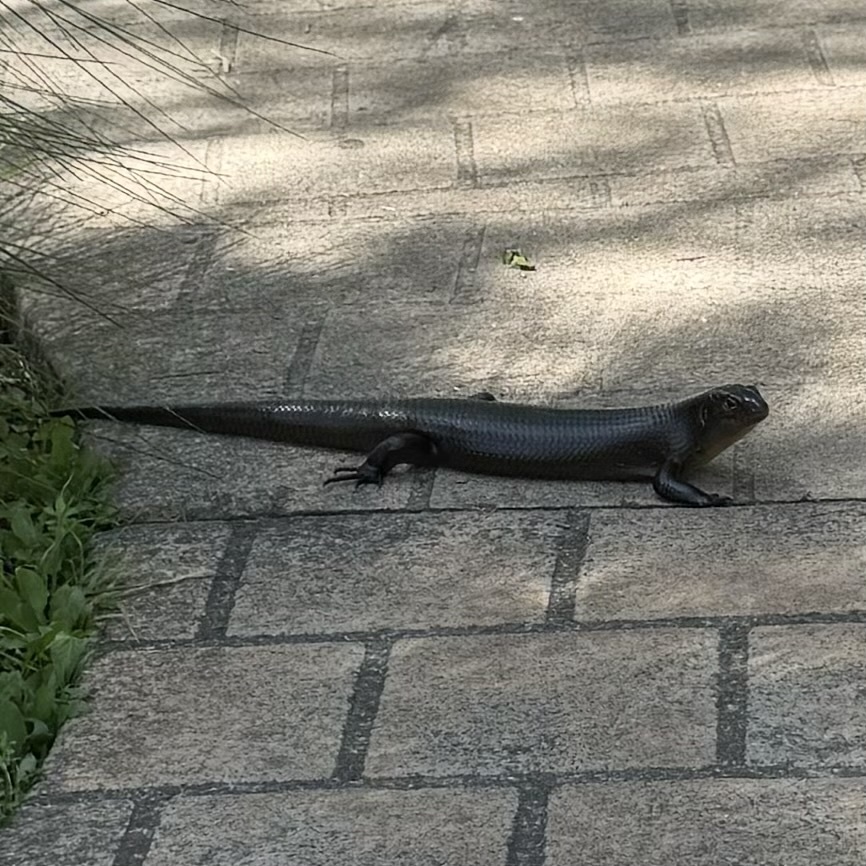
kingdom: Animalia
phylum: Chordata
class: Squamata
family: Scincidae
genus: Bellatorias
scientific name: Bellatorias major
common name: Land mullet
